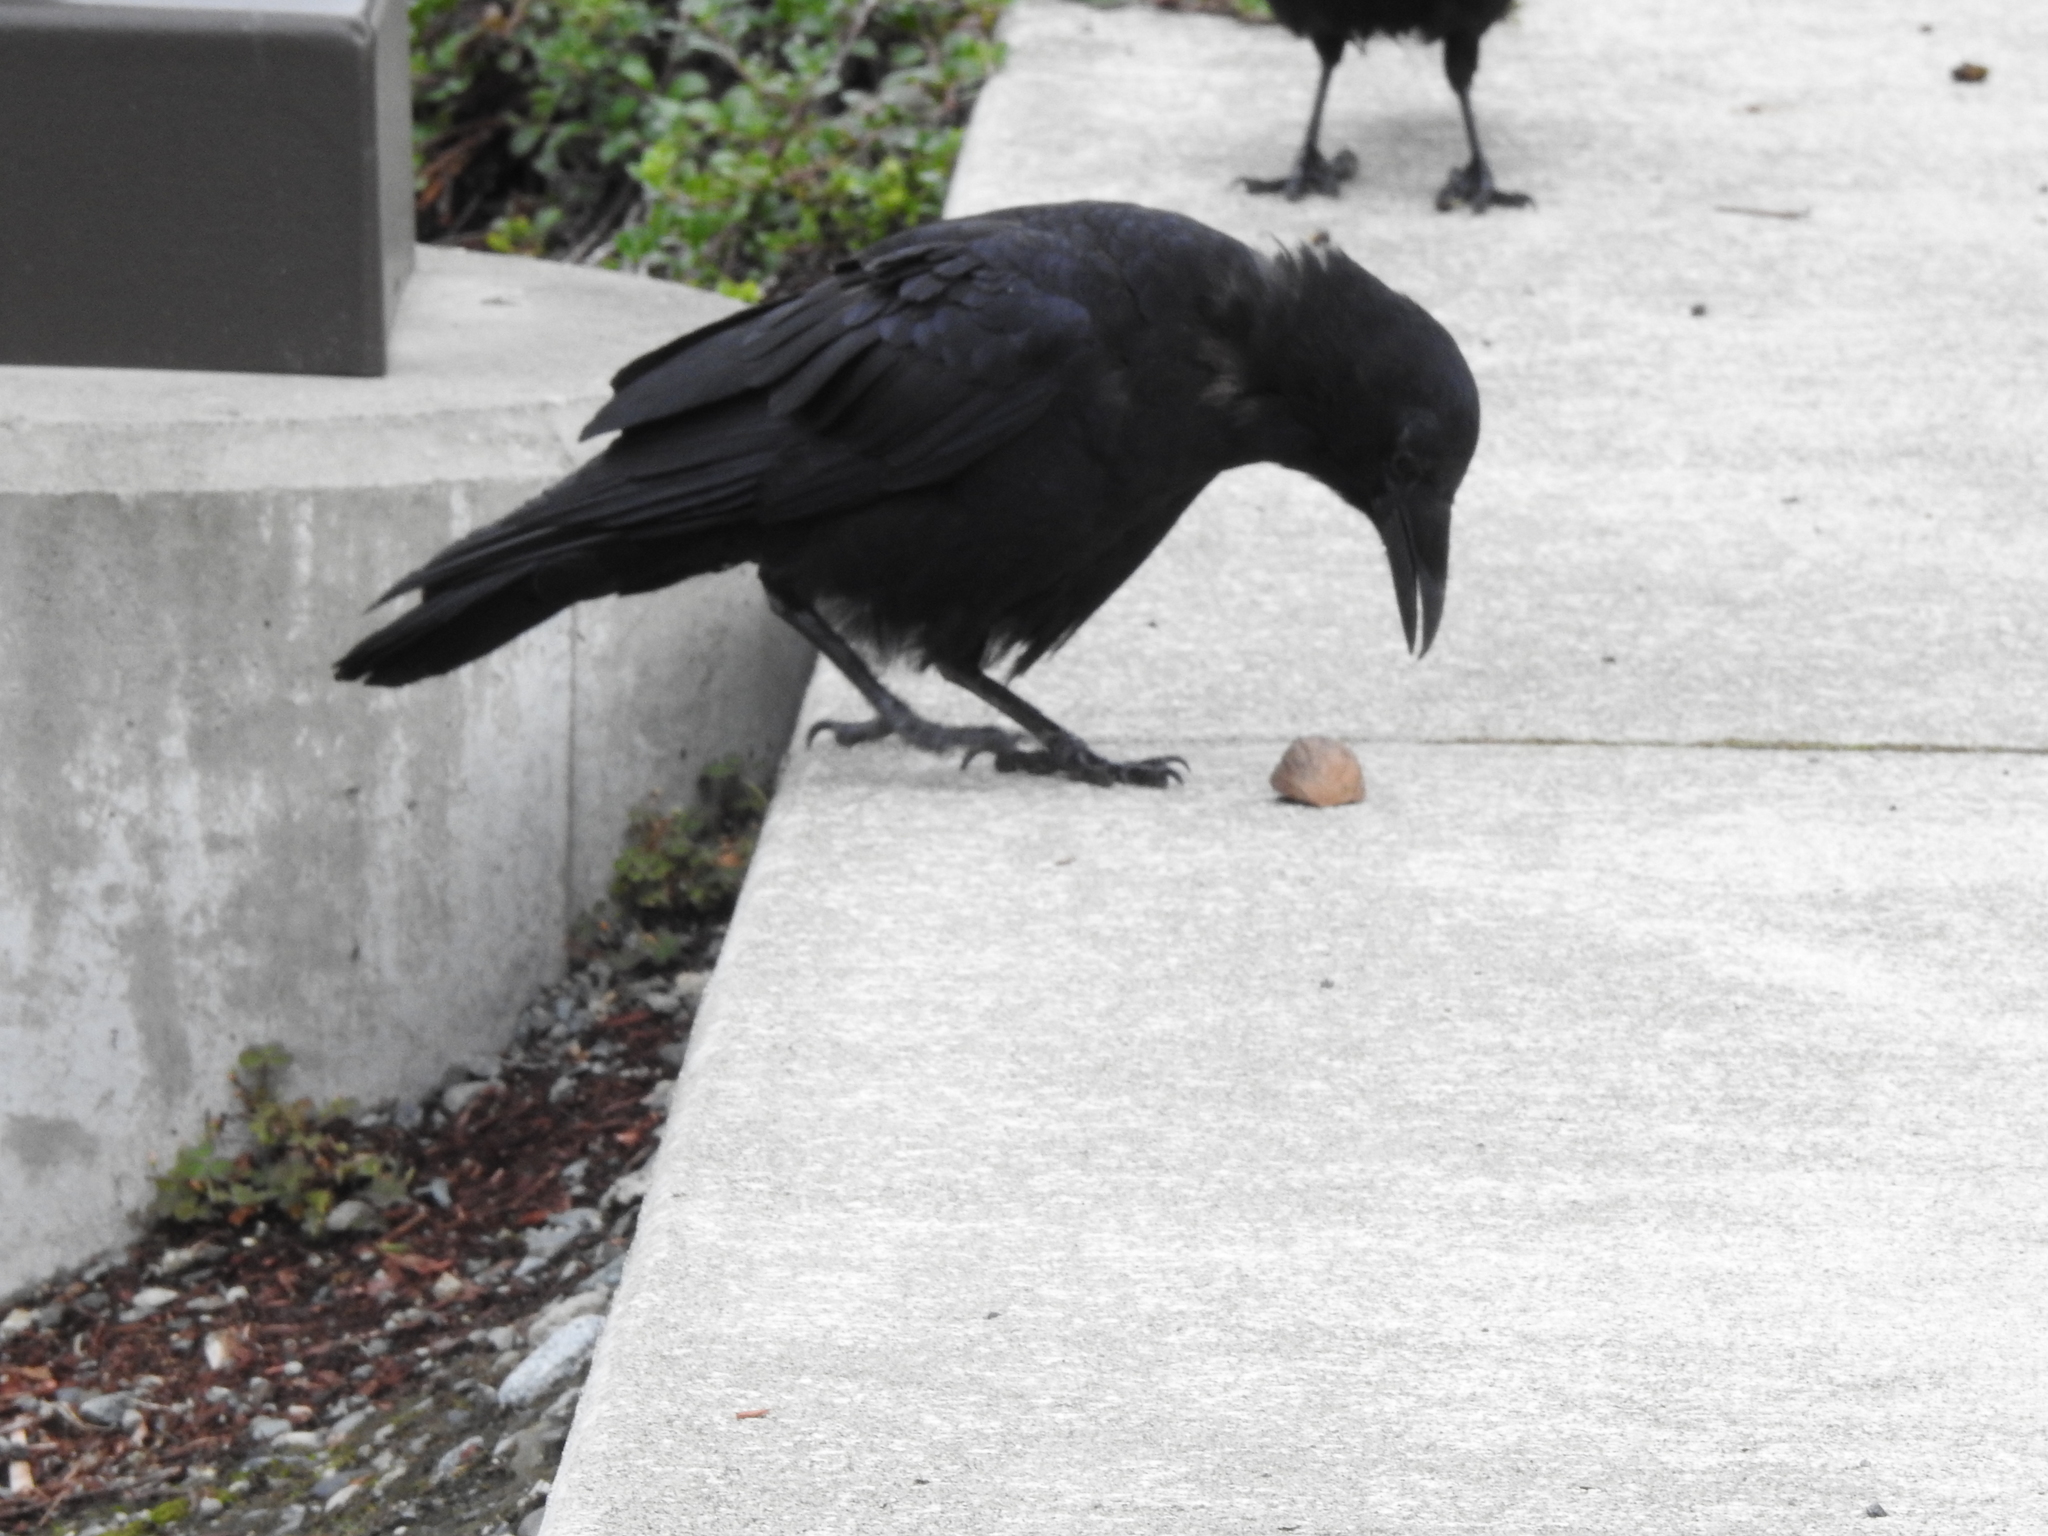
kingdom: Animalia
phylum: Chordata
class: Aves
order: Passeriformes
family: Corvidae
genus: Corvus
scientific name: Corvus brachyrhynchos
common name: American crow
